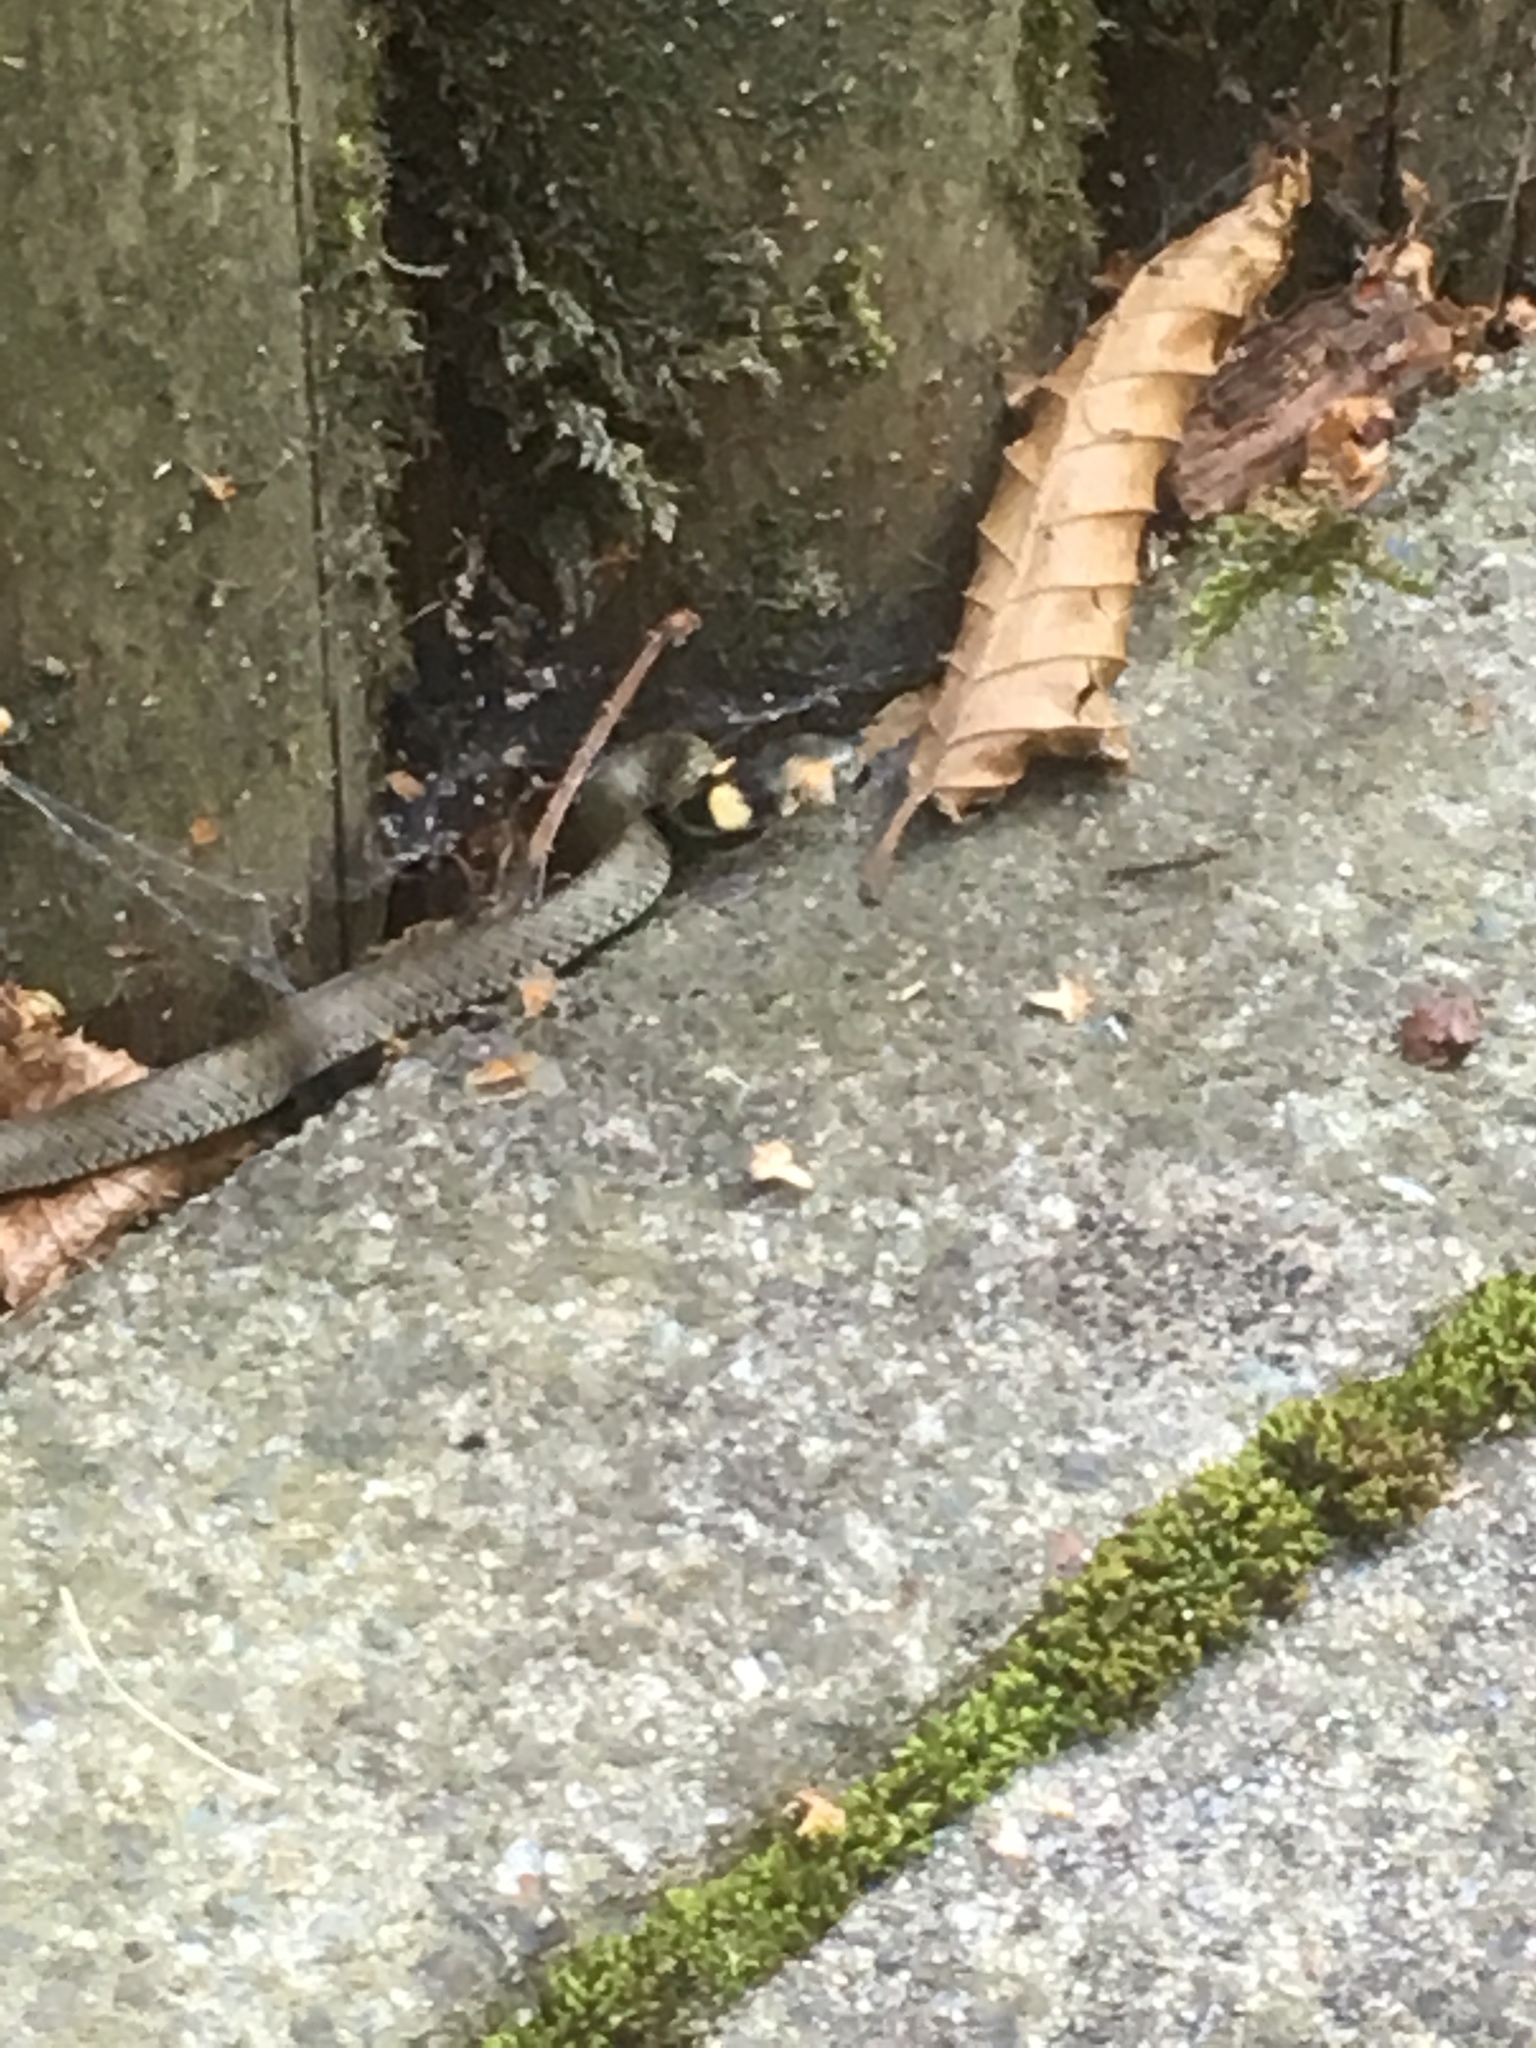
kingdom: Animalia
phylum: Chordata
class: Squamata
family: Colubridae
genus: Natrix
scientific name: Natrix natrix
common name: Grass snake
